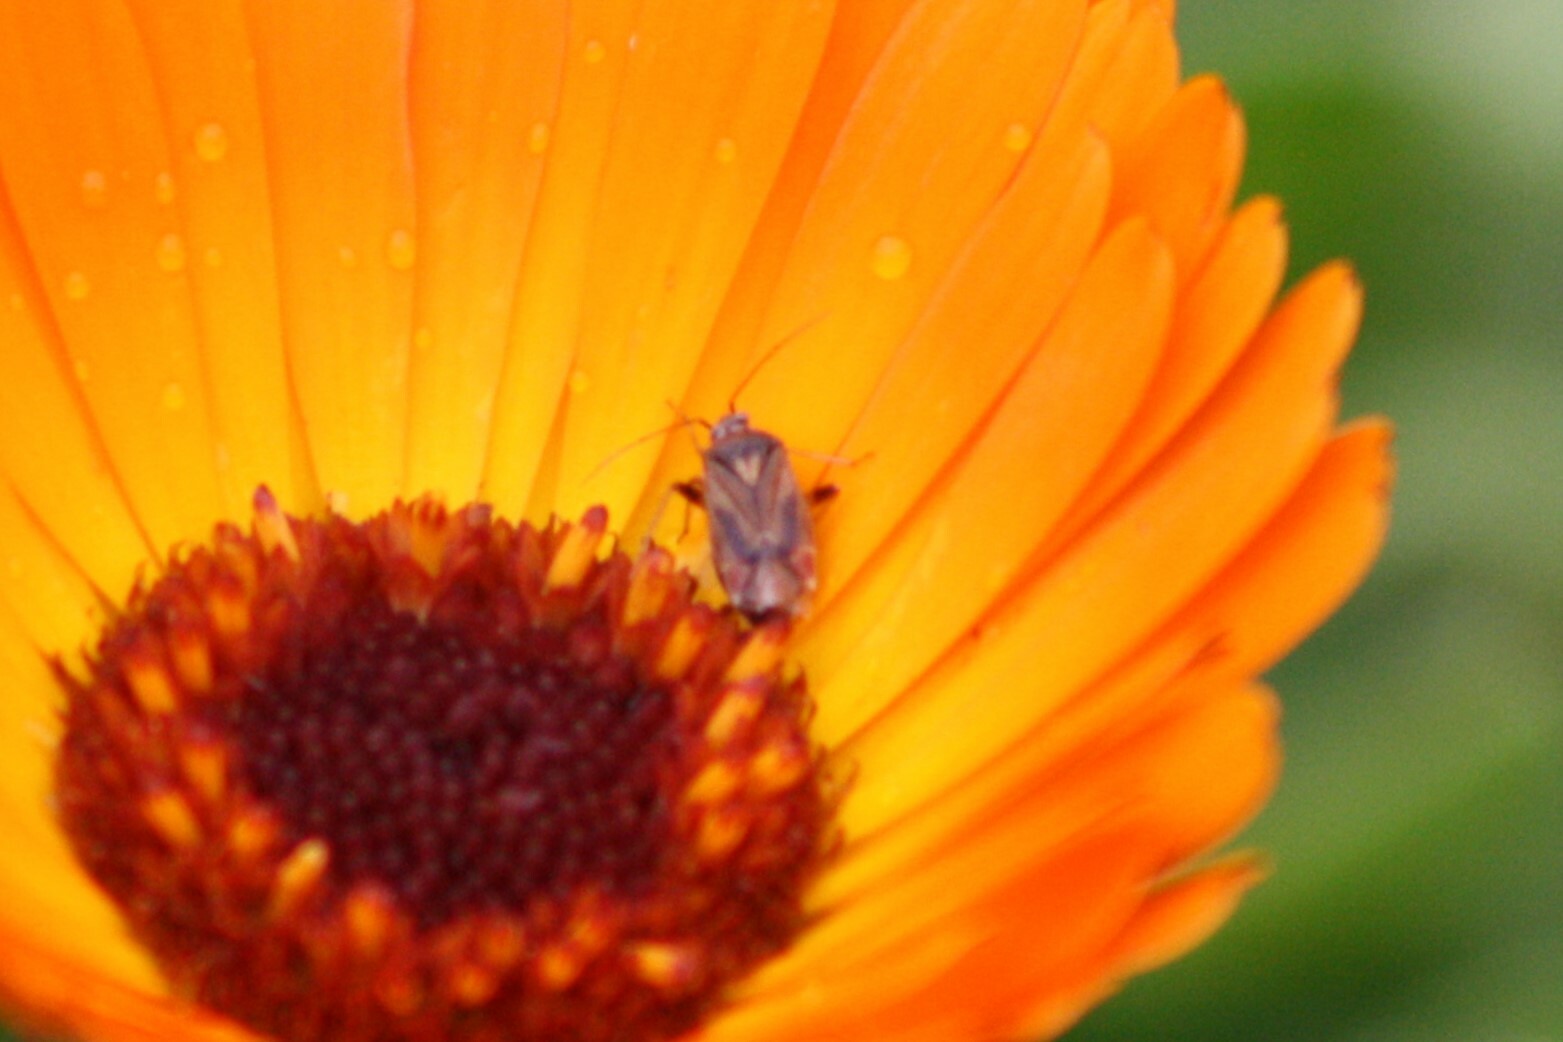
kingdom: Animalia
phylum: Arthropoda
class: Insecta
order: Hemiptera
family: Miridae
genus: Polymerus
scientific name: Polymerus basalis
